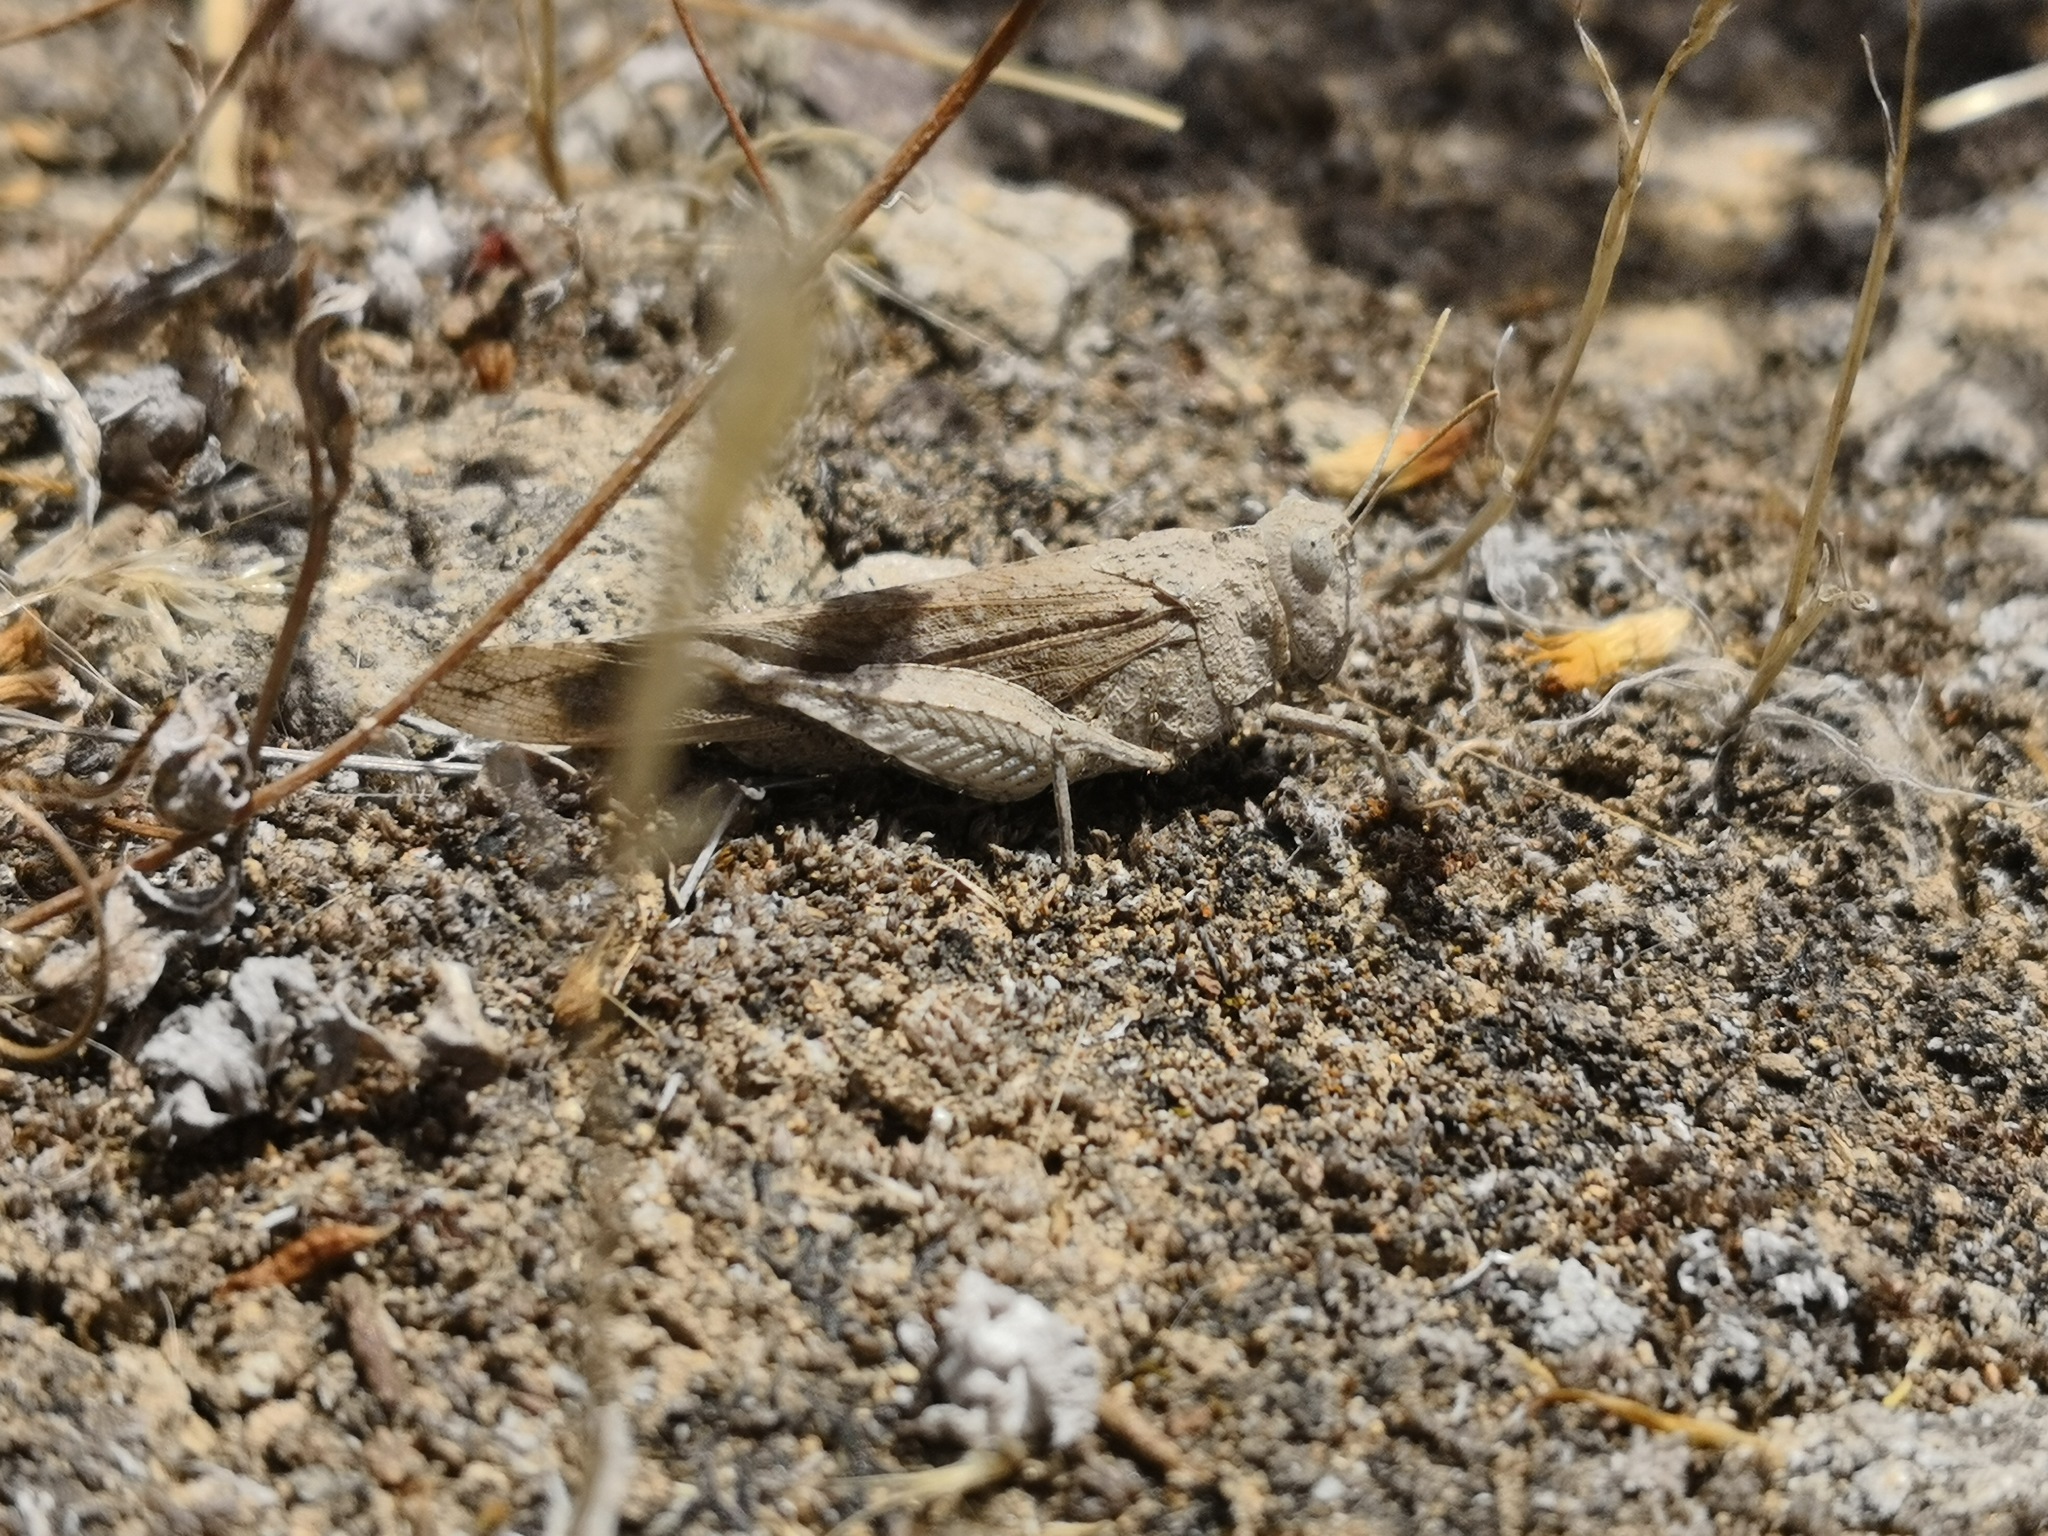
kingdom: Animalia
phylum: Arthropoda
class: Insecta
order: Orthoptera
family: Acrididae
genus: Oedipoda
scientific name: Oedipoda canariensis
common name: Canarian band-winged grasshopper
